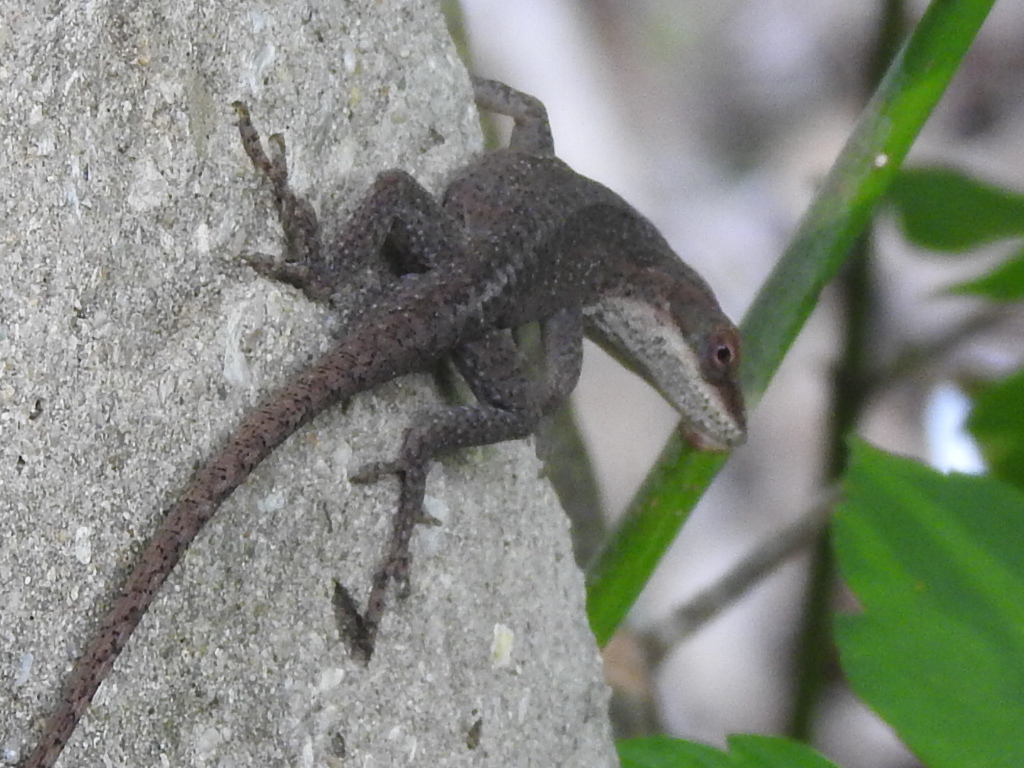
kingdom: Animalia
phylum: Chordata
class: Squamata
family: Dactyloidae
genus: Anolis
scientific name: Anolis carolinensis
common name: Green anole
